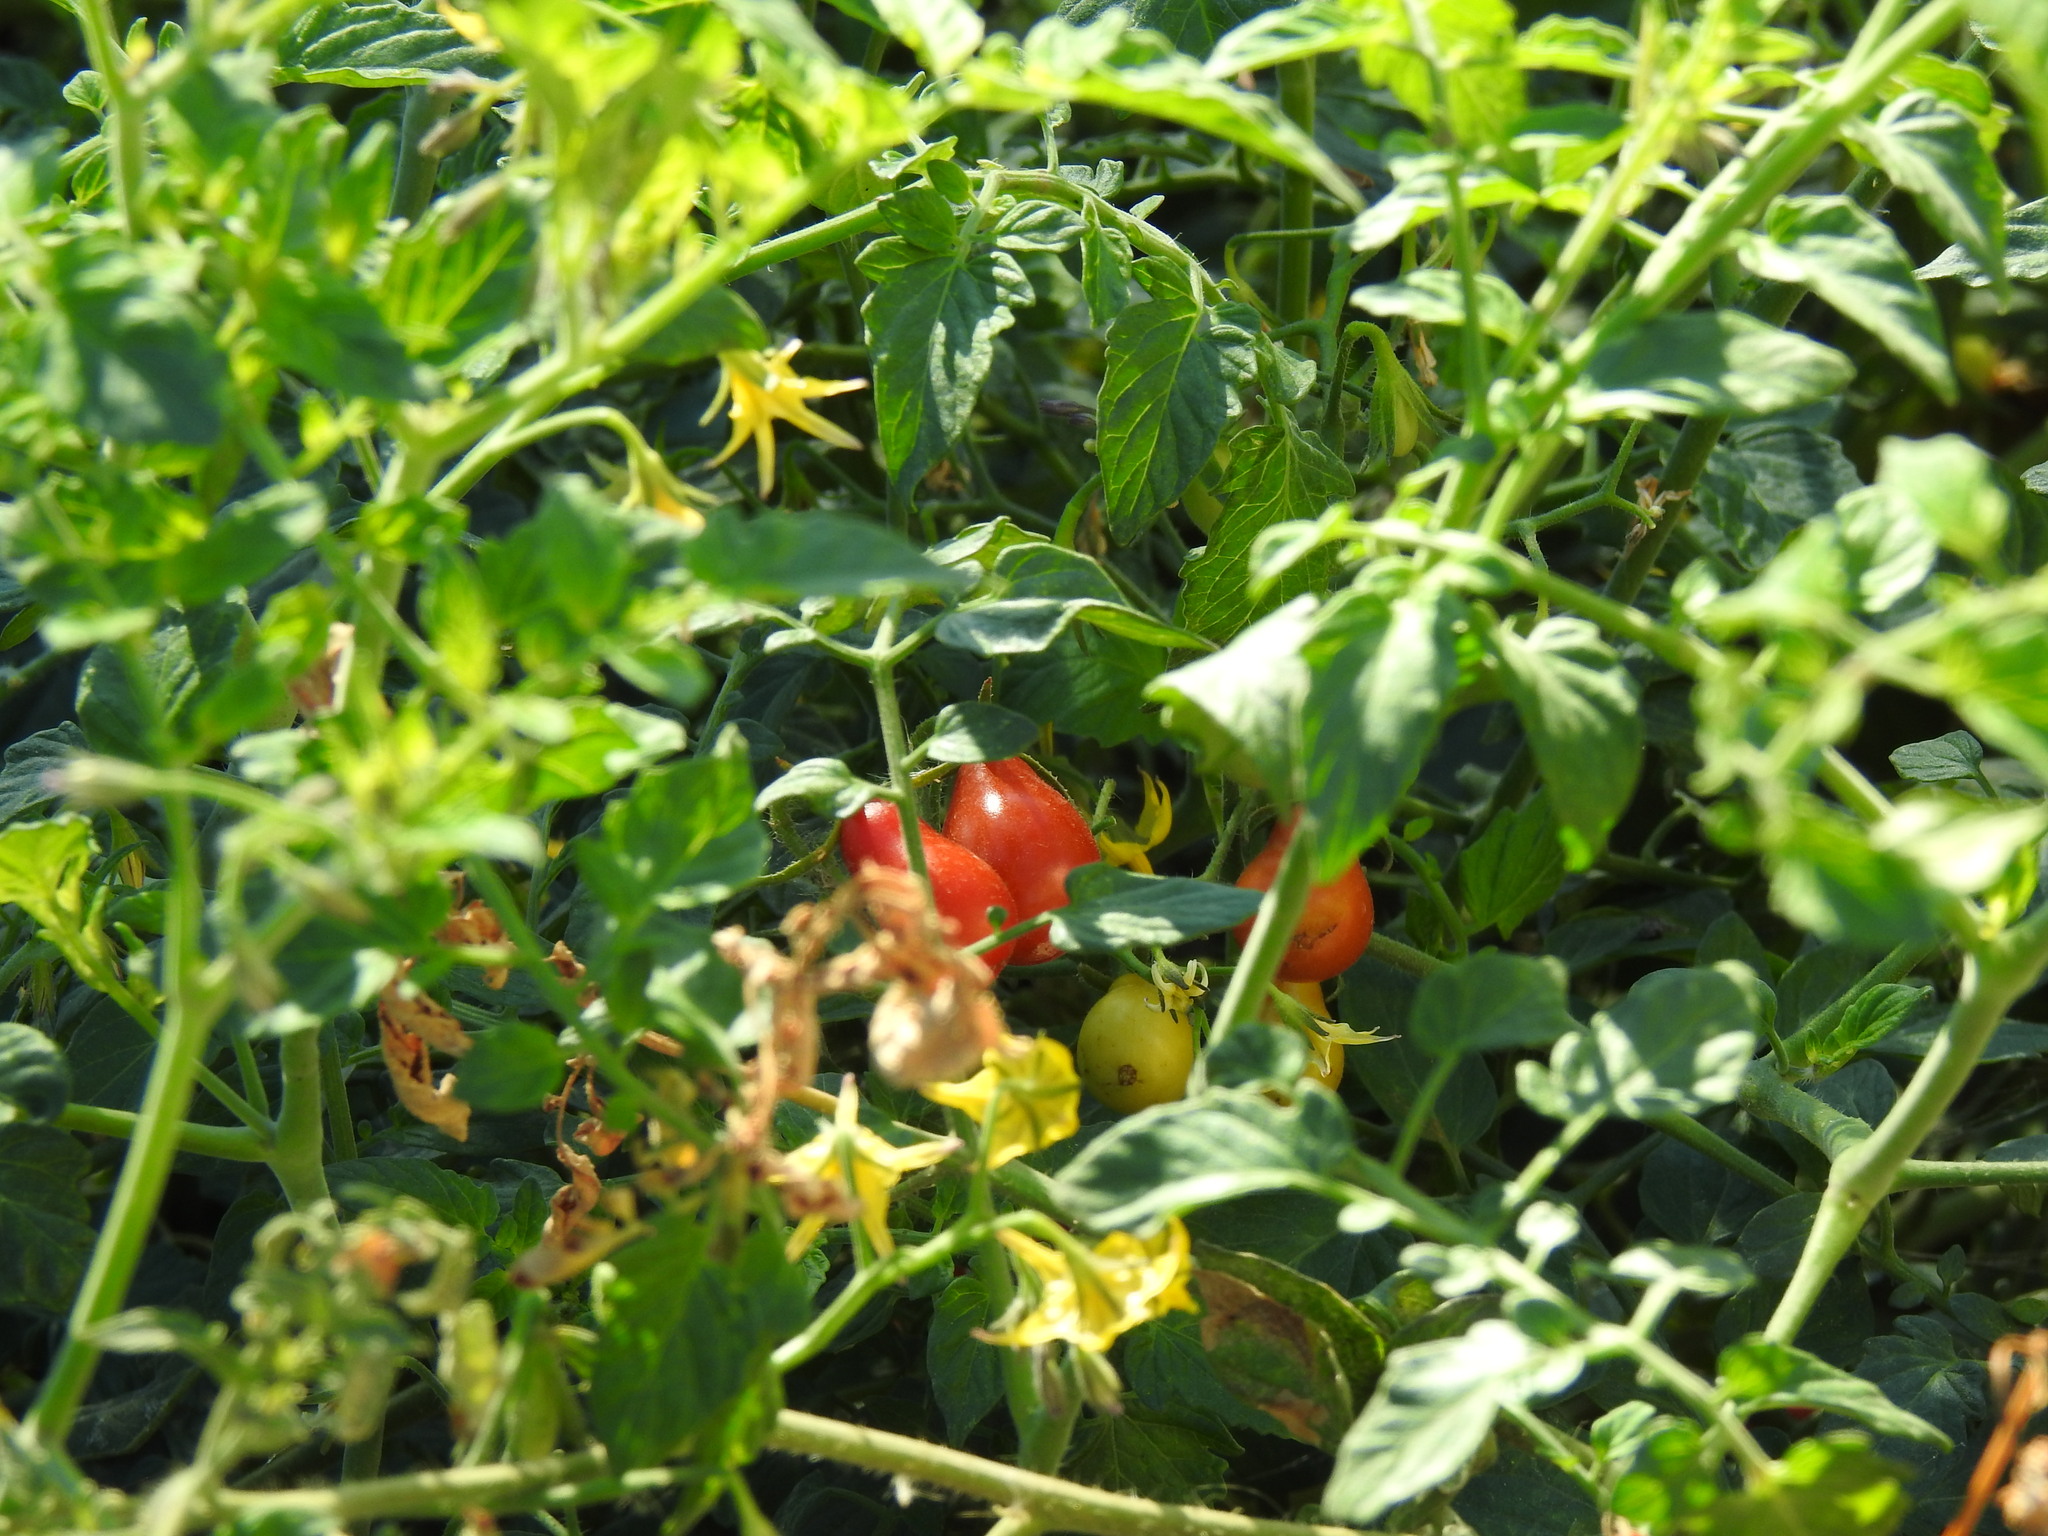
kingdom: Plantae
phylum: Tracheophyta
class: Magnoliopsida
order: Solanales
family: Solanaceae
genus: Solanum
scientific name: Solanum lycopersicum
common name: Garden tomato
